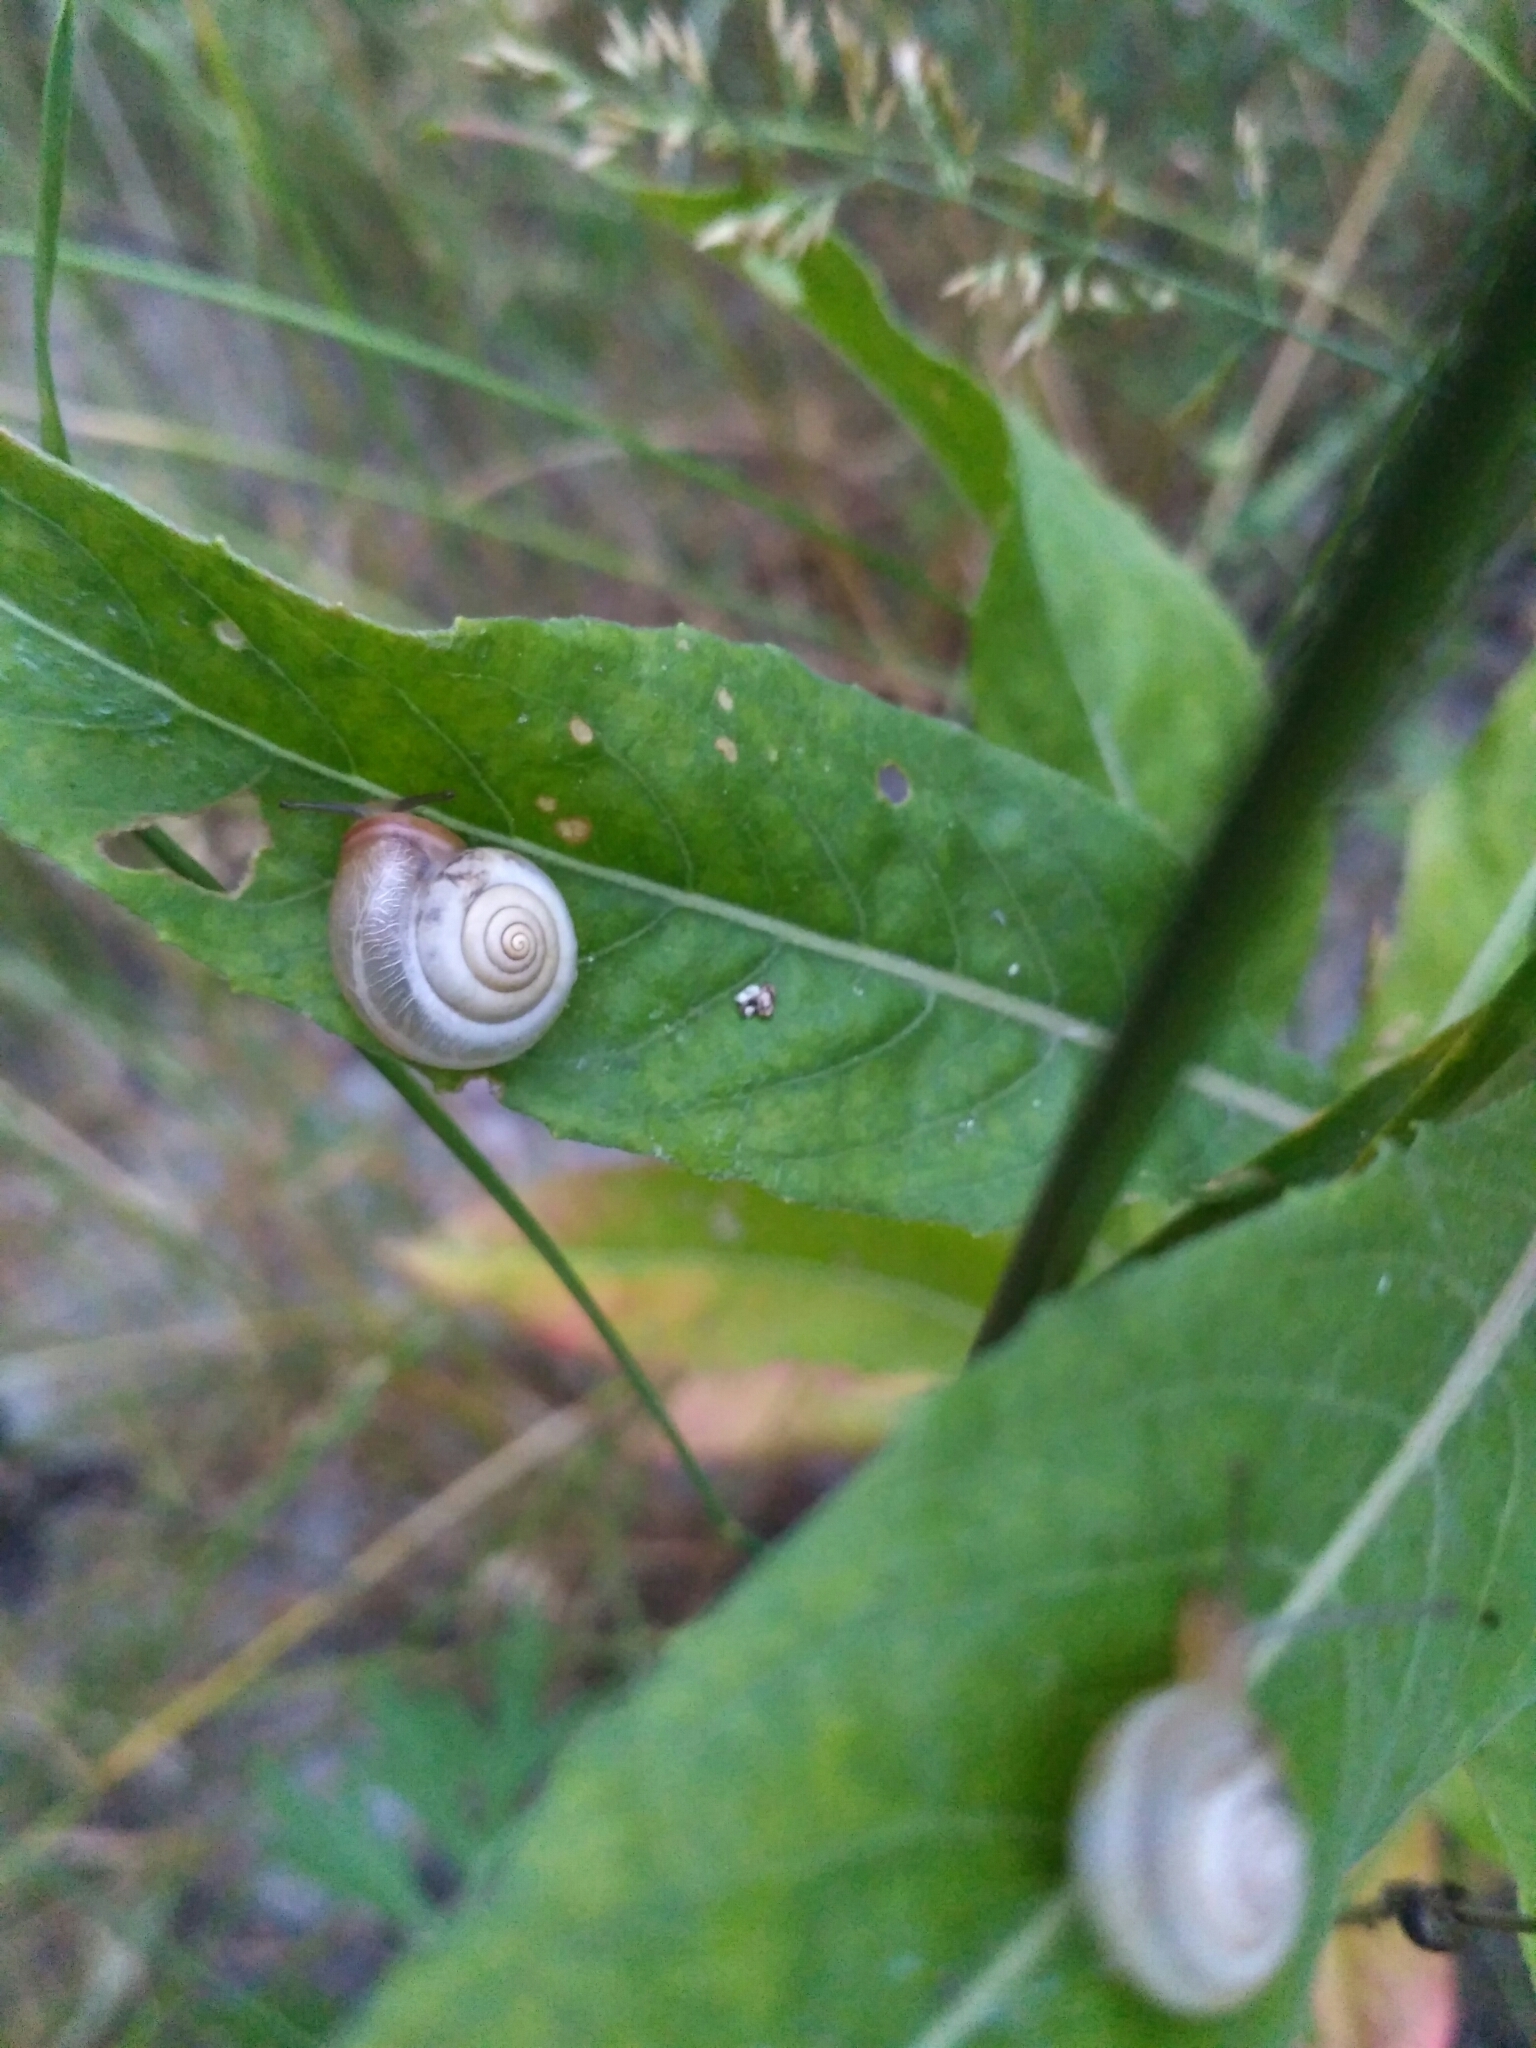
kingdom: Animalia
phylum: Mollusca
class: Gastropoda
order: Stylommatophora
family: Hygromiidae
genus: Monacha
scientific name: Monacha cartusiana
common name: Carthusian snail
